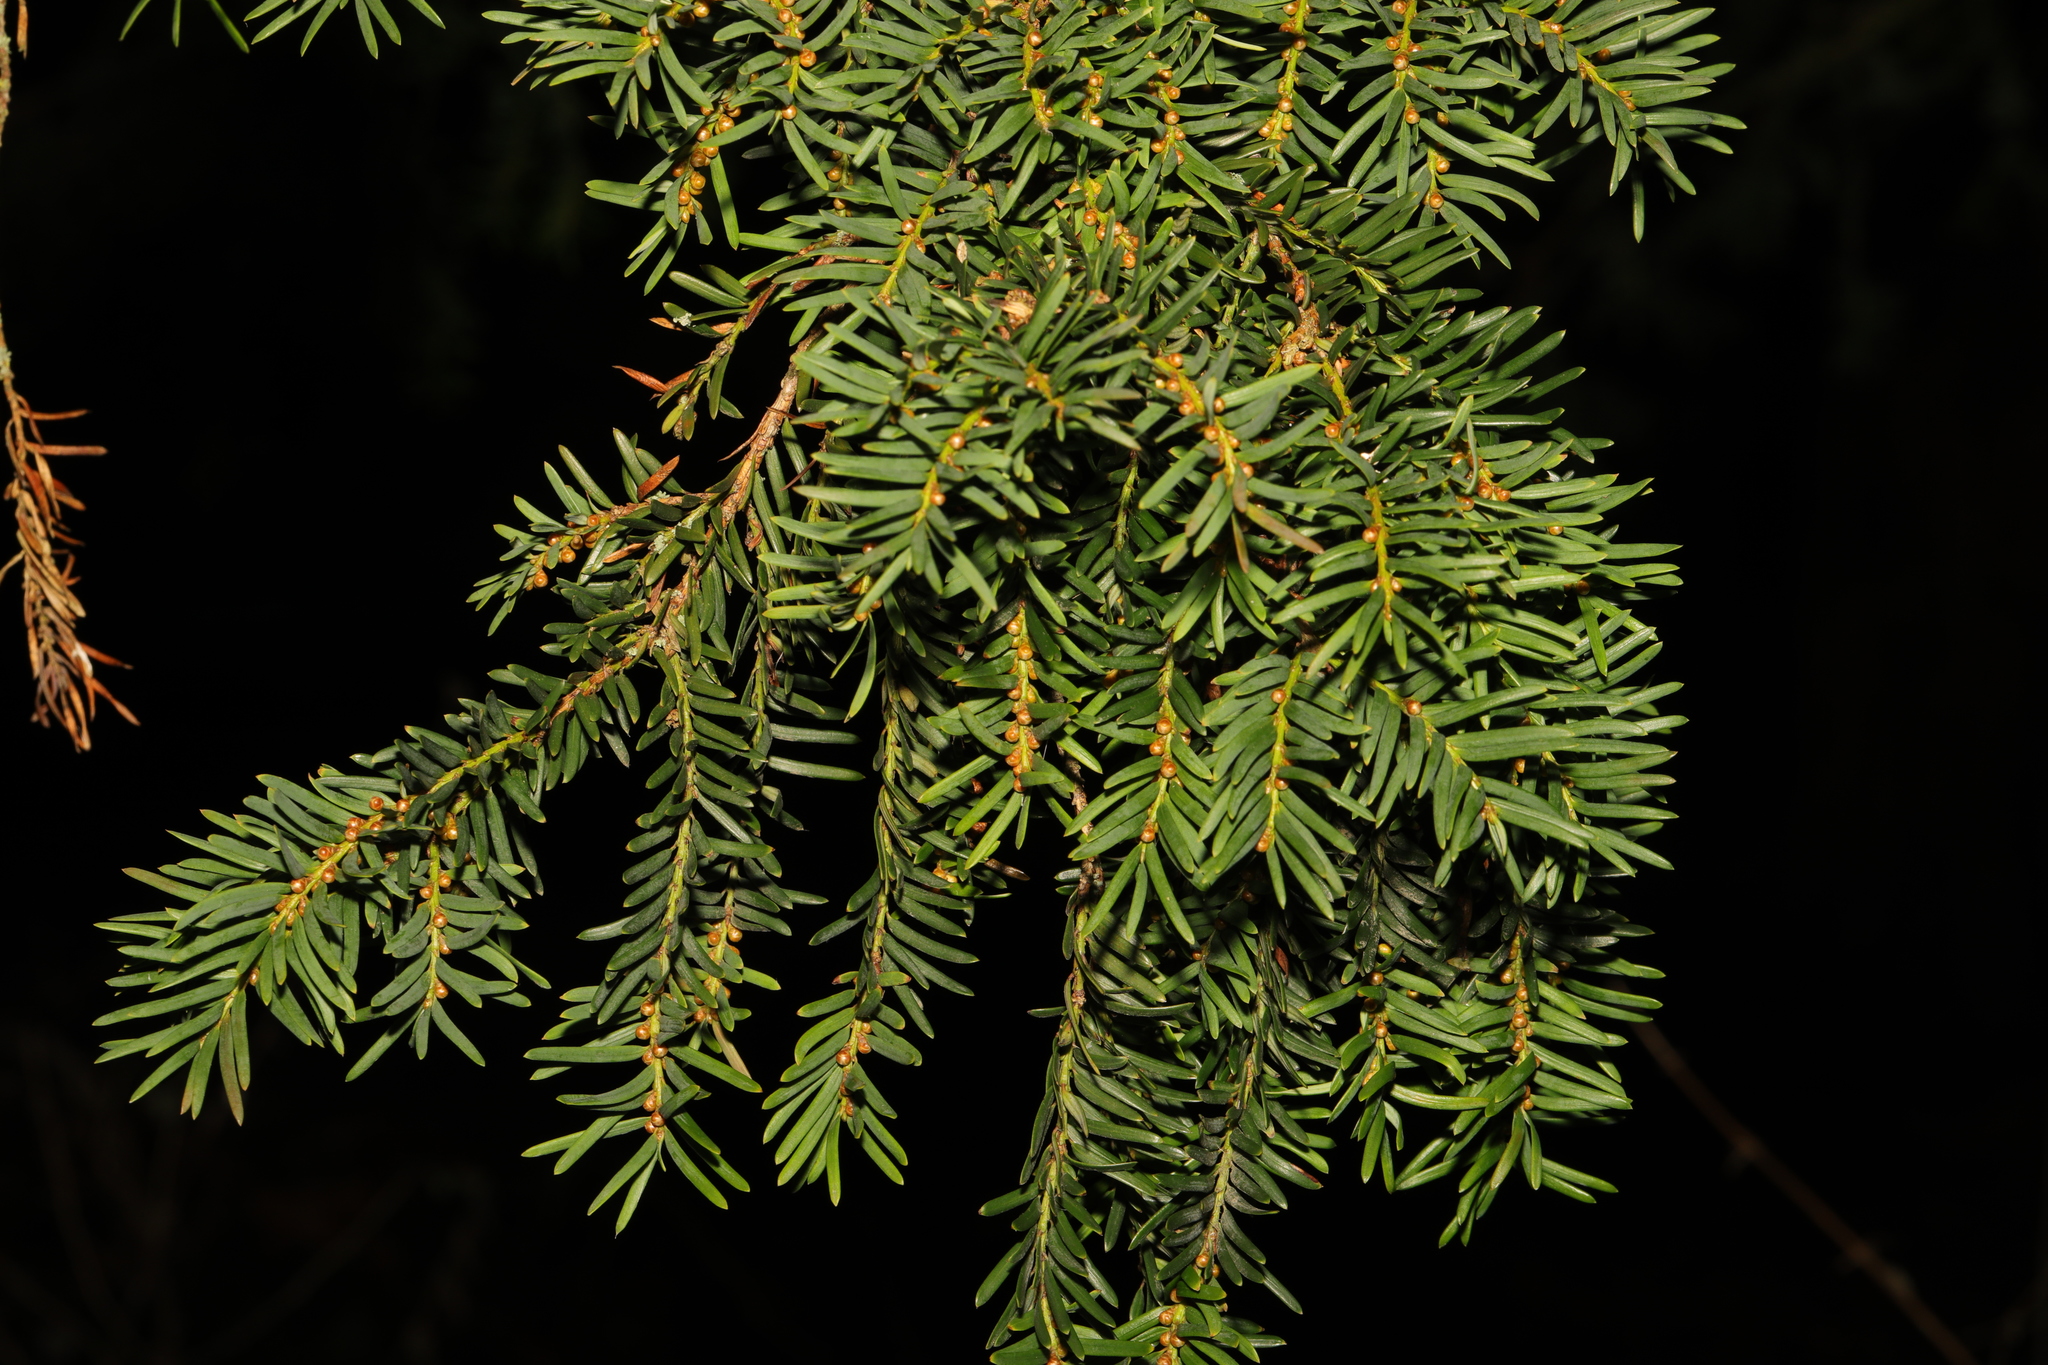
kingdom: Plantae
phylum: Tracheophyta
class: Pinopsida
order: Pinales
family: Taxaceae
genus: Taxus
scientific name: Taxus baccata
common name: Yew
